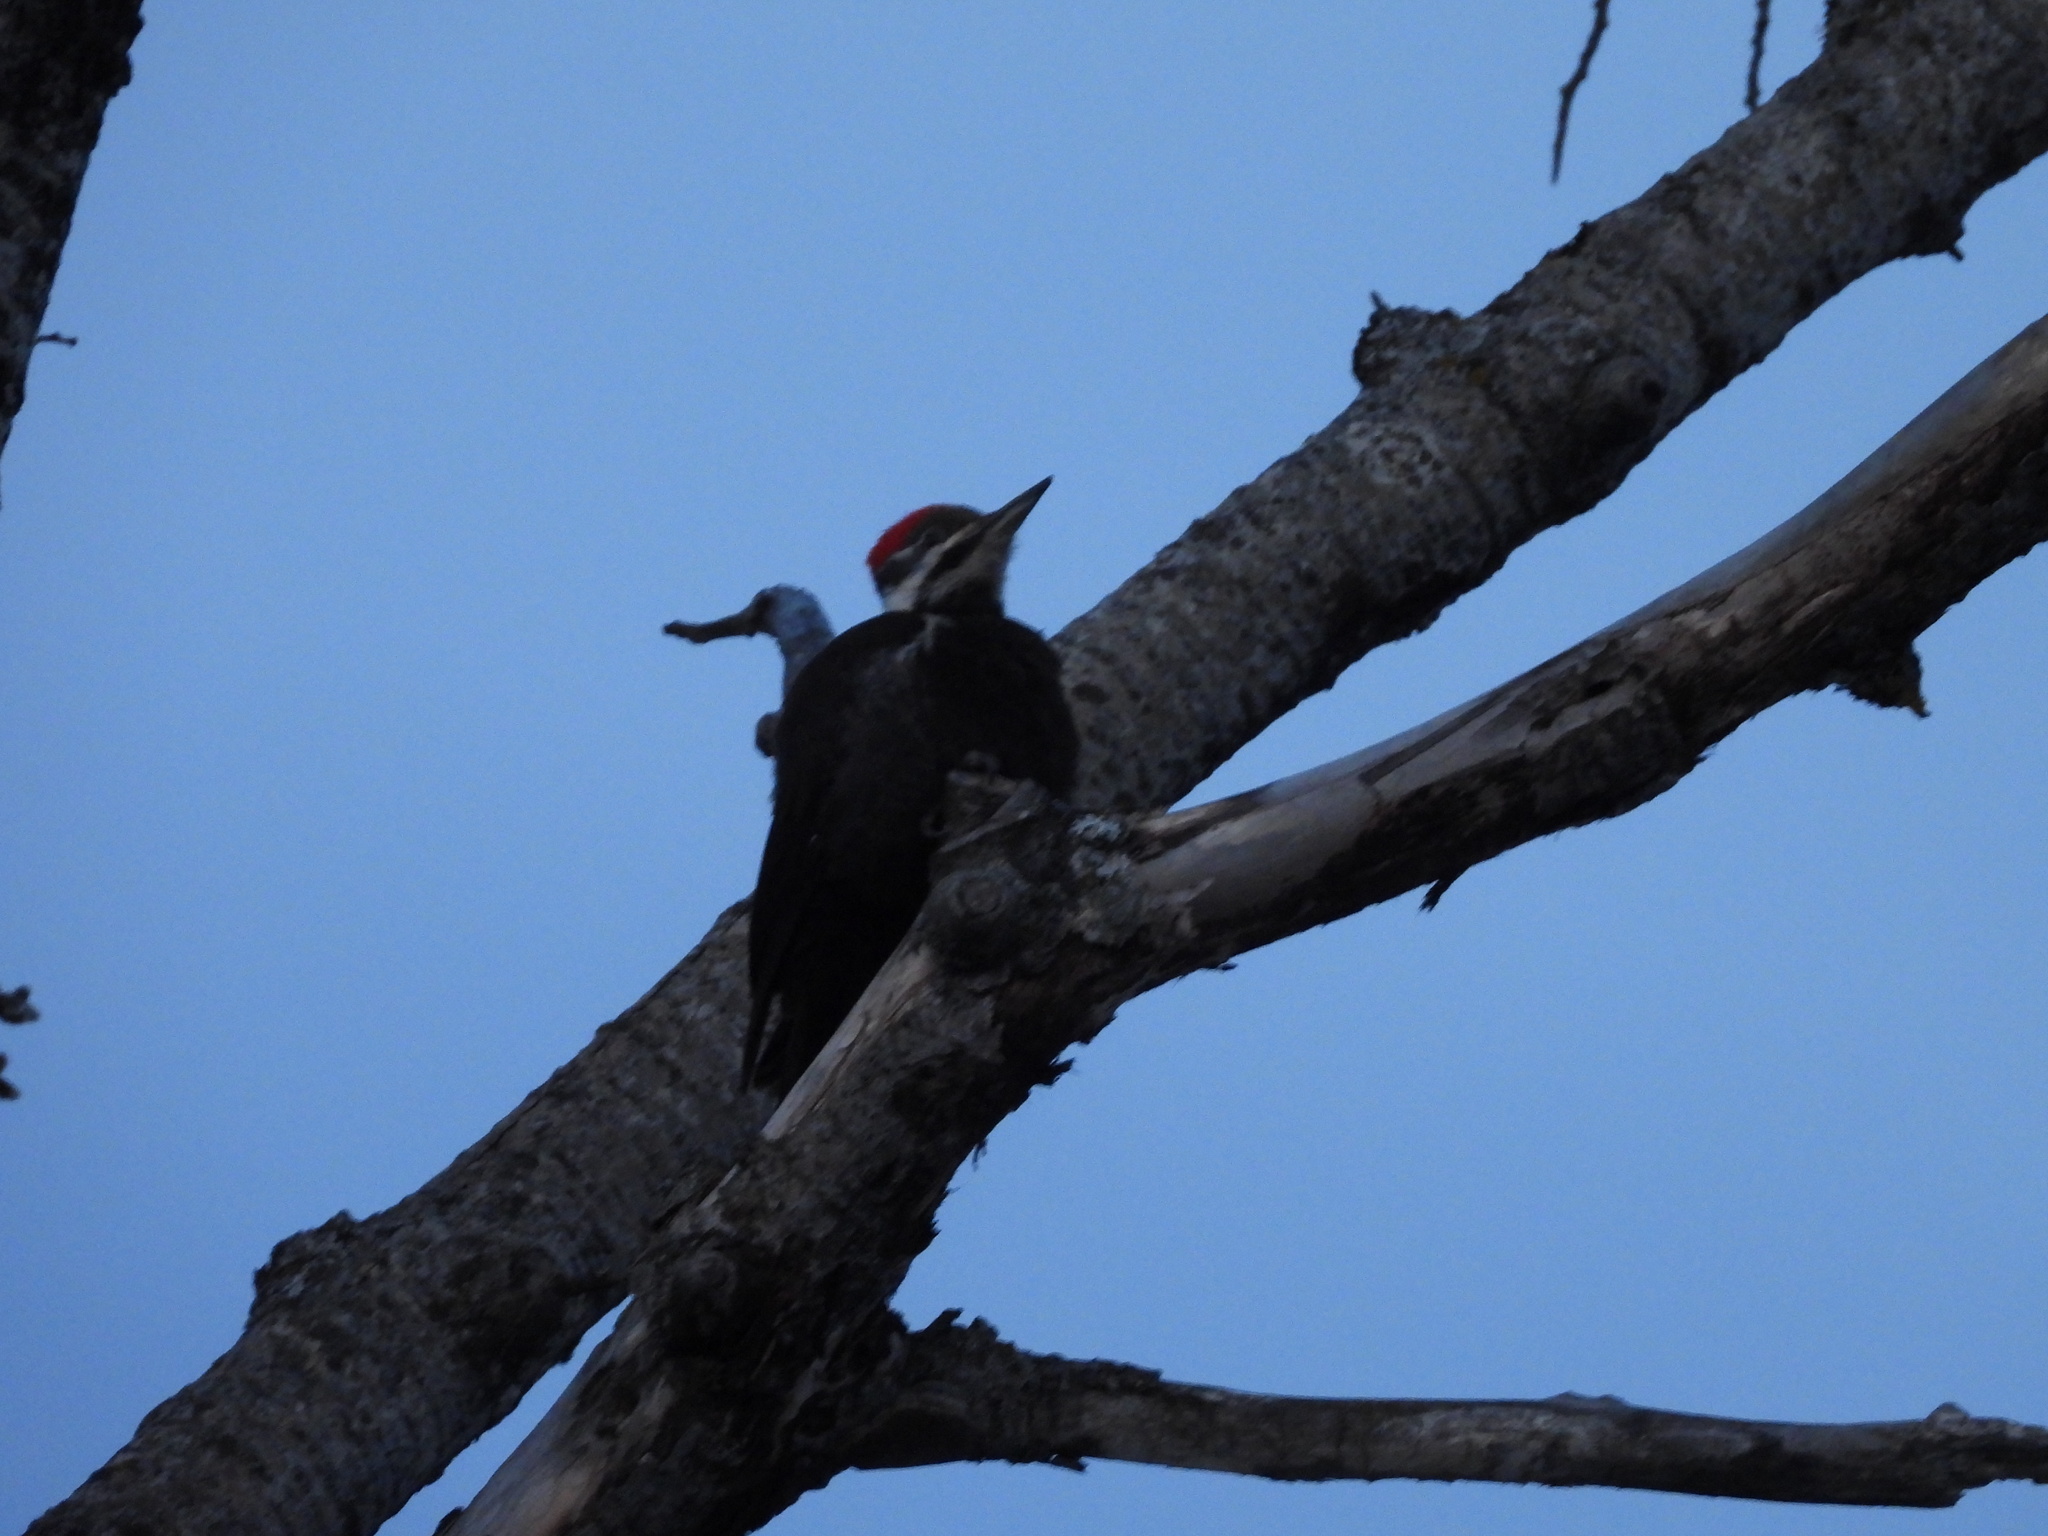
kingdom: Animalia
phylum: Chordata
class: Aves
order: Piciformes
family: Picidae
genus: Dryocopus
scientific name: Dryocopus pileatus
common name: Pileated woodpecker
